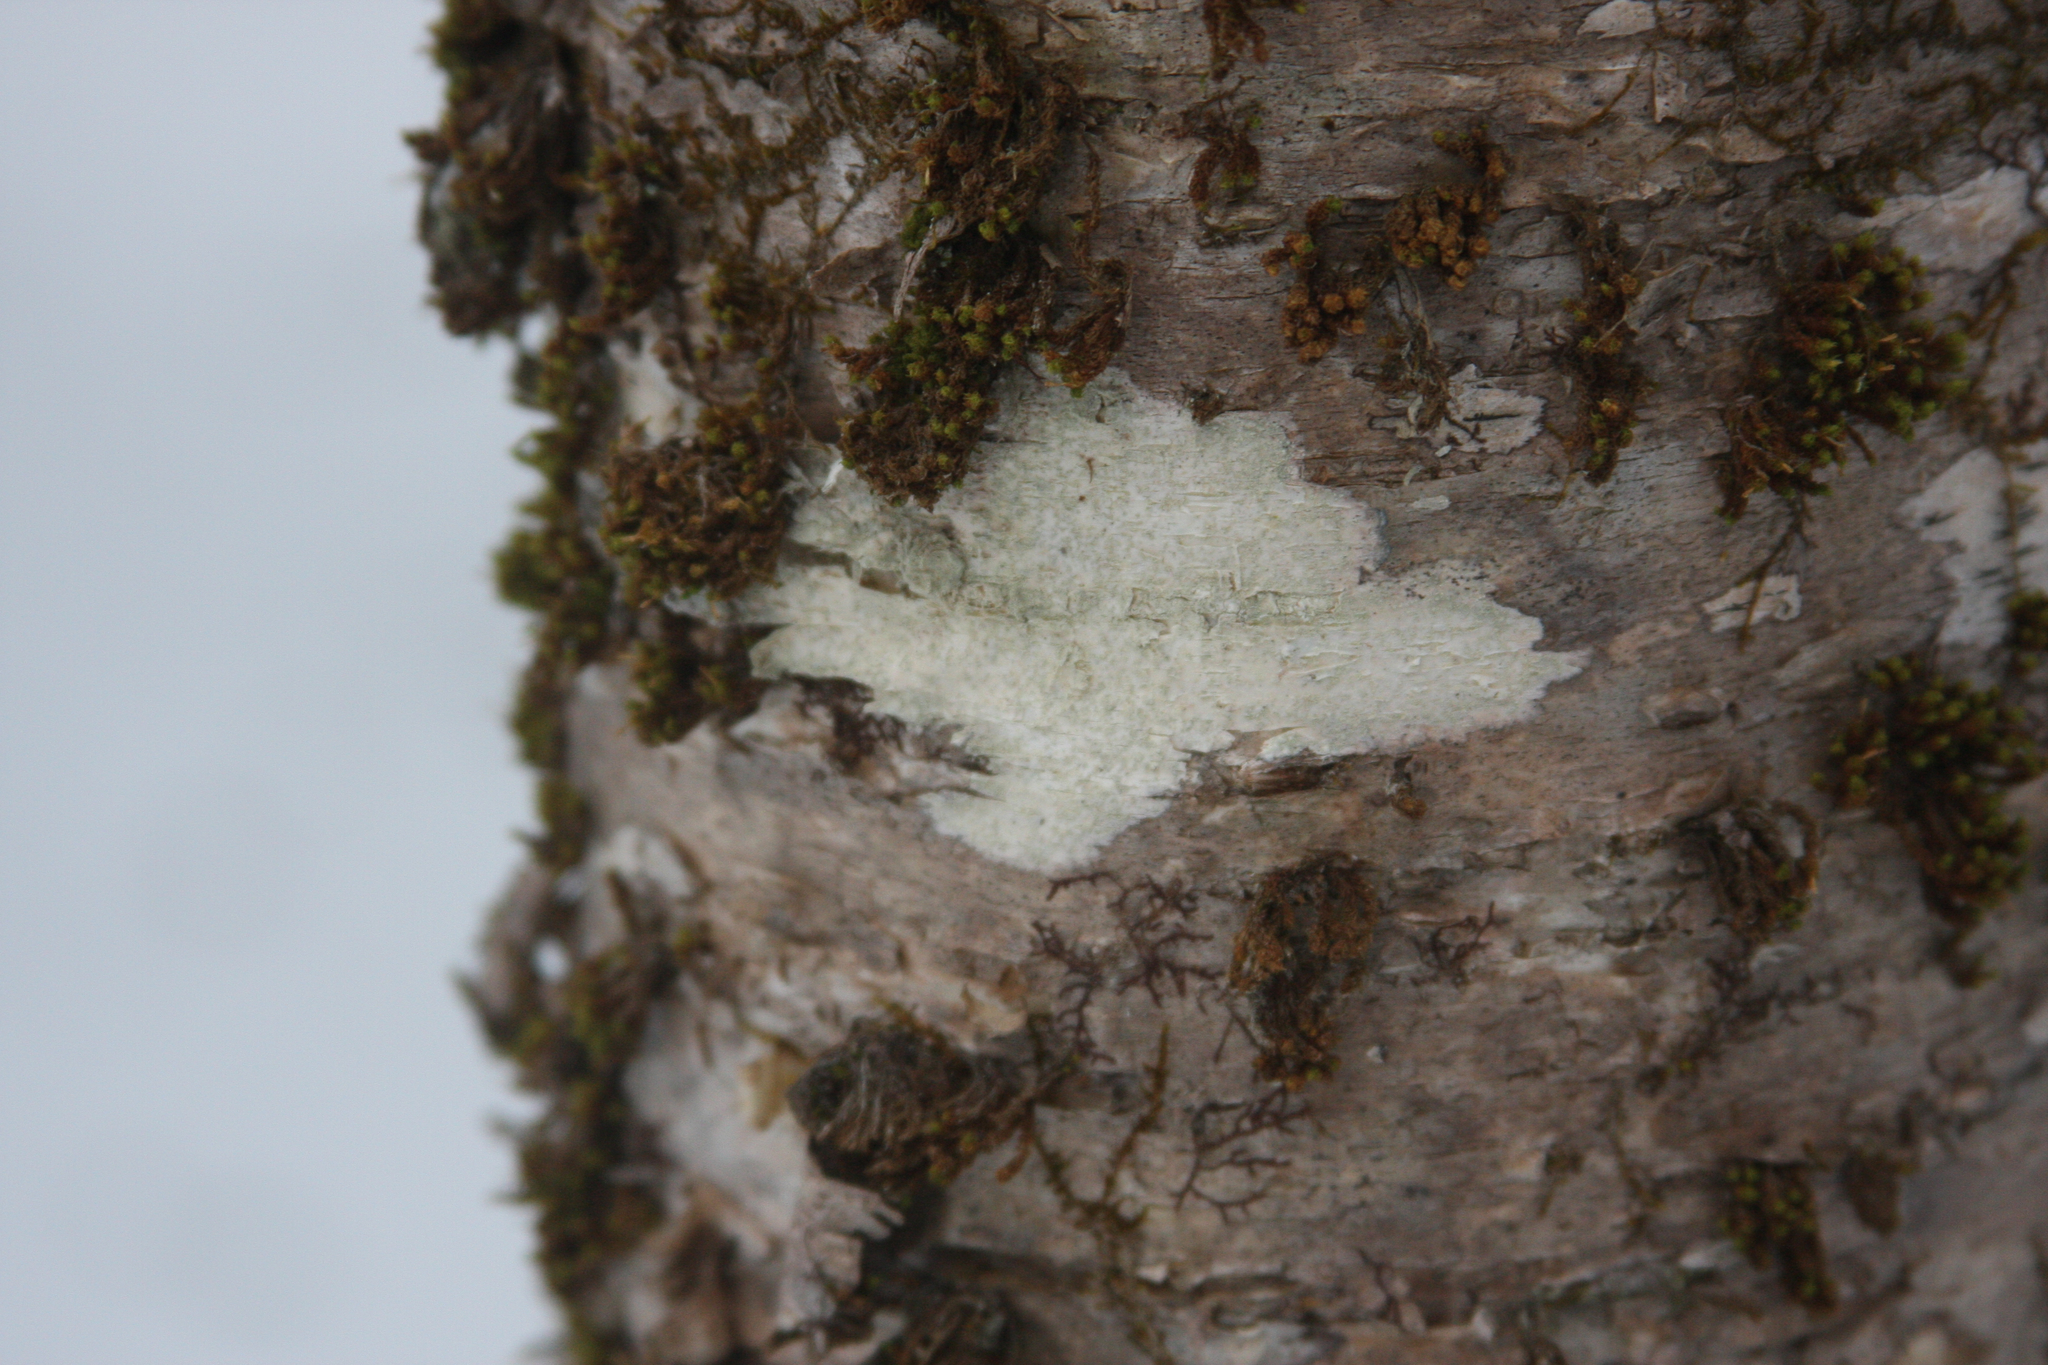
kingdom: Plantae
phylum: Bryophyta
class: Bryopsida
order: Orthotrichales
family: Orthotrichaceae
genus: Ulota
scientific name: Ulota crispa
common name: Crisped pincushion moss
